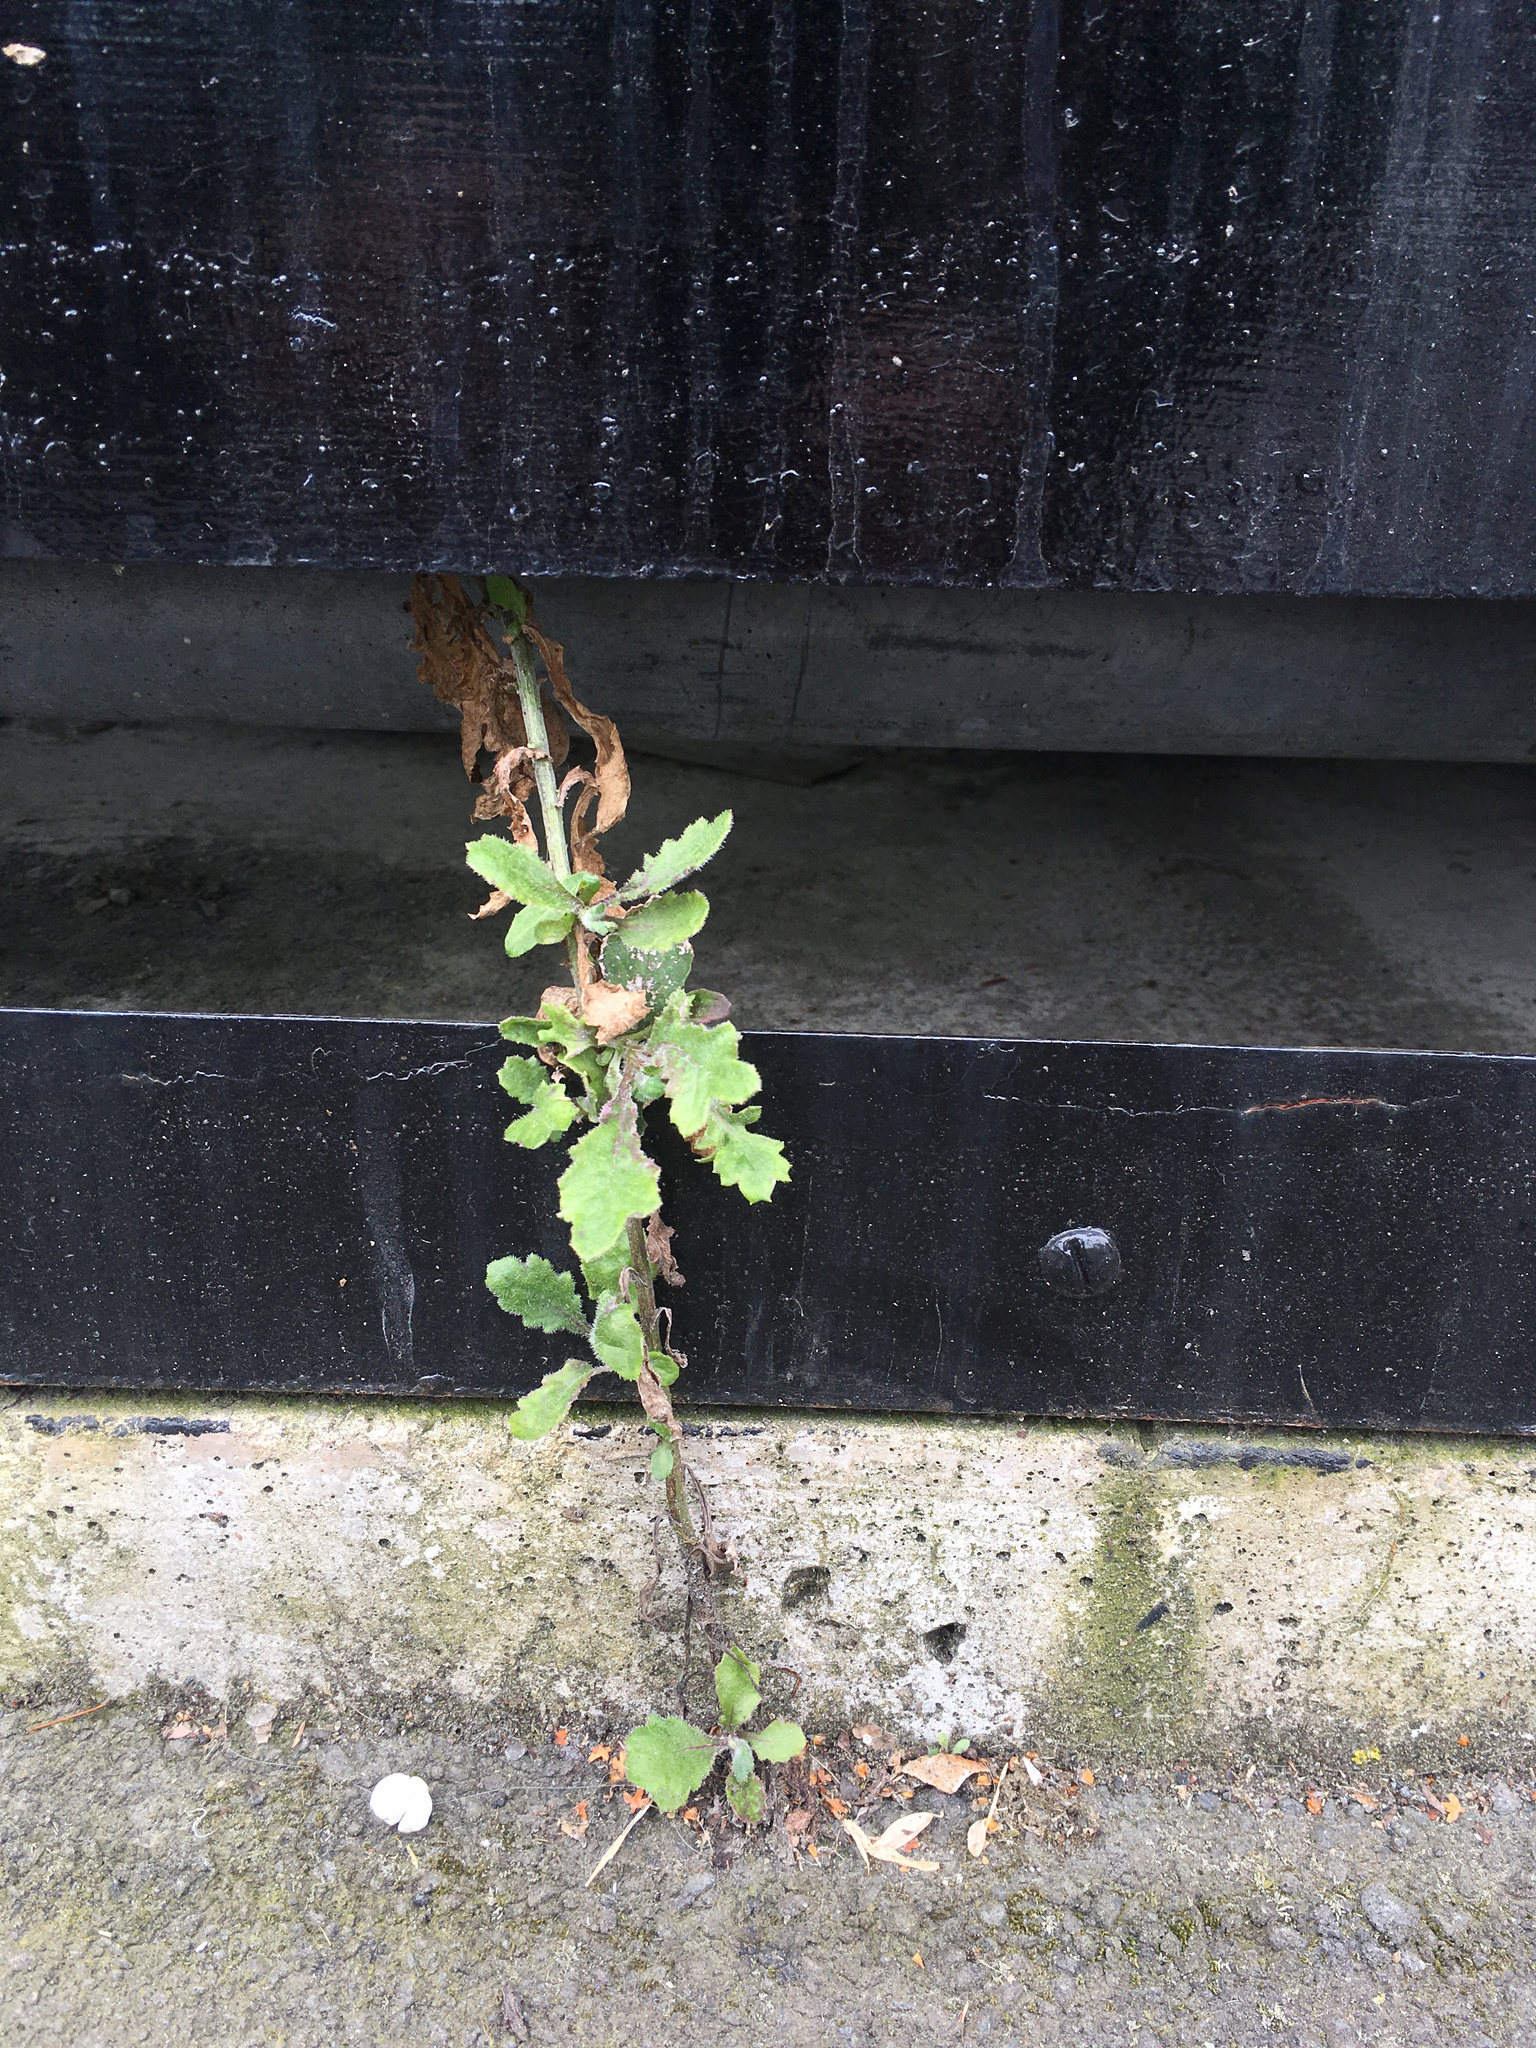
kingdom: Plantae
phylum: Tracheophyta
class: Magnoliopsida
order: Asterales
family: Asteraceae
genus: Senecio
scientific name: Senecio glomeratus
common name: Cutleaf burnweed
